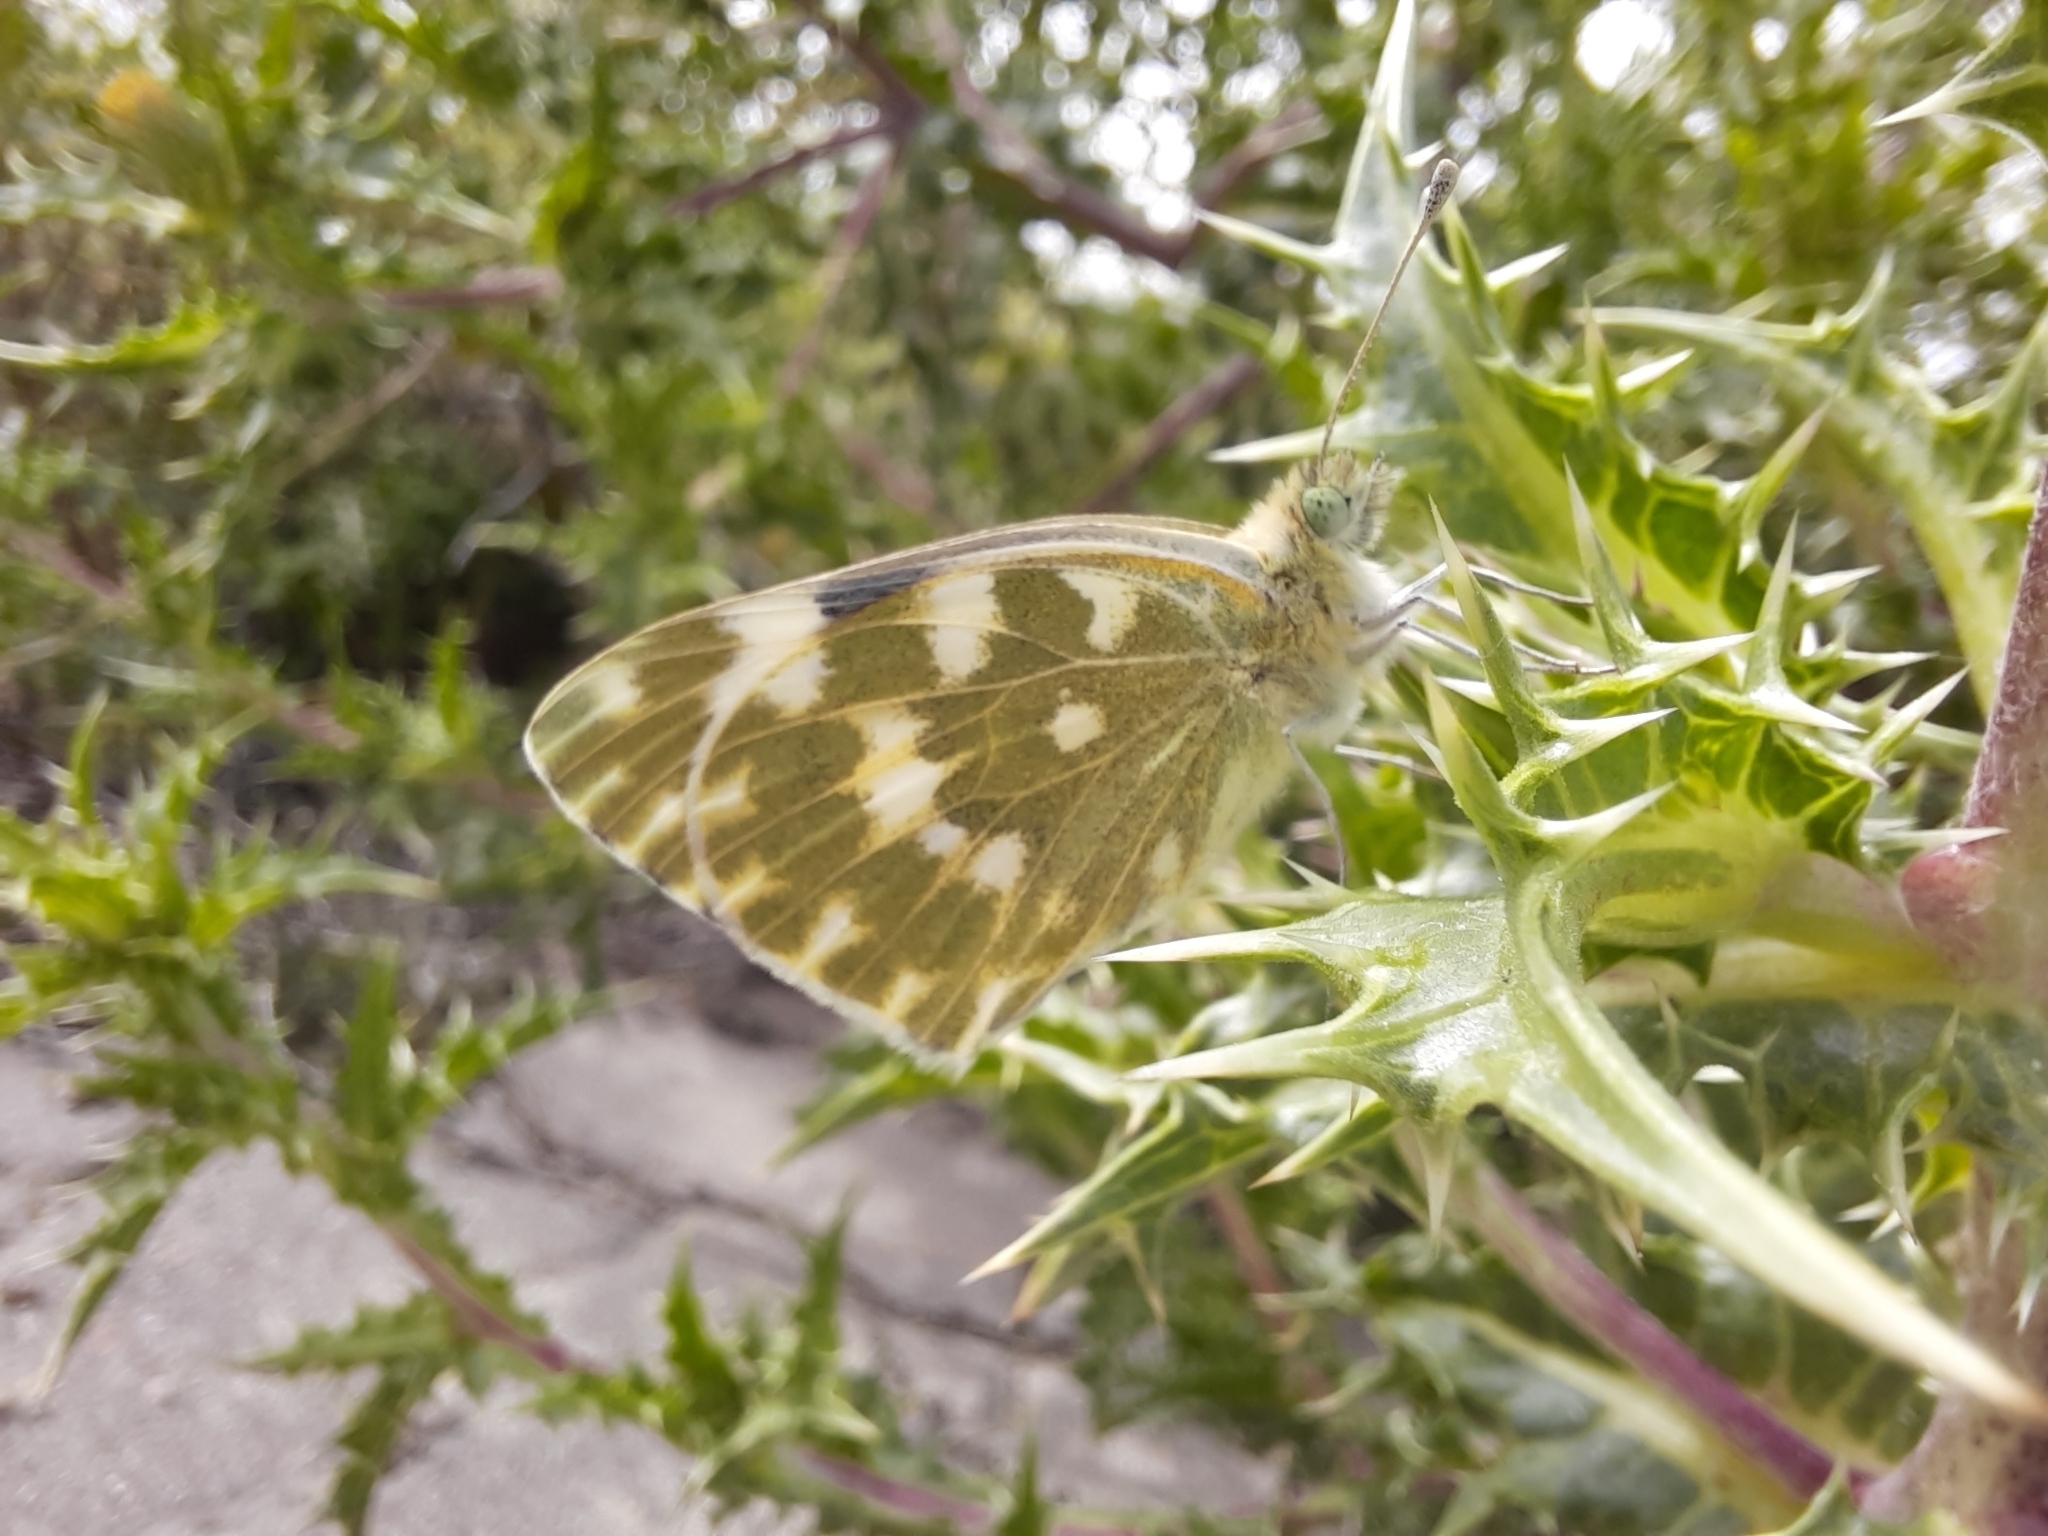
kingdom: Animalia
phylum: Arthropoda
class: Insecta
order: Lepidoptera
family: Pieridae
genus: Pontia
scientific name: Pontia daplidice
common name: Bath white
